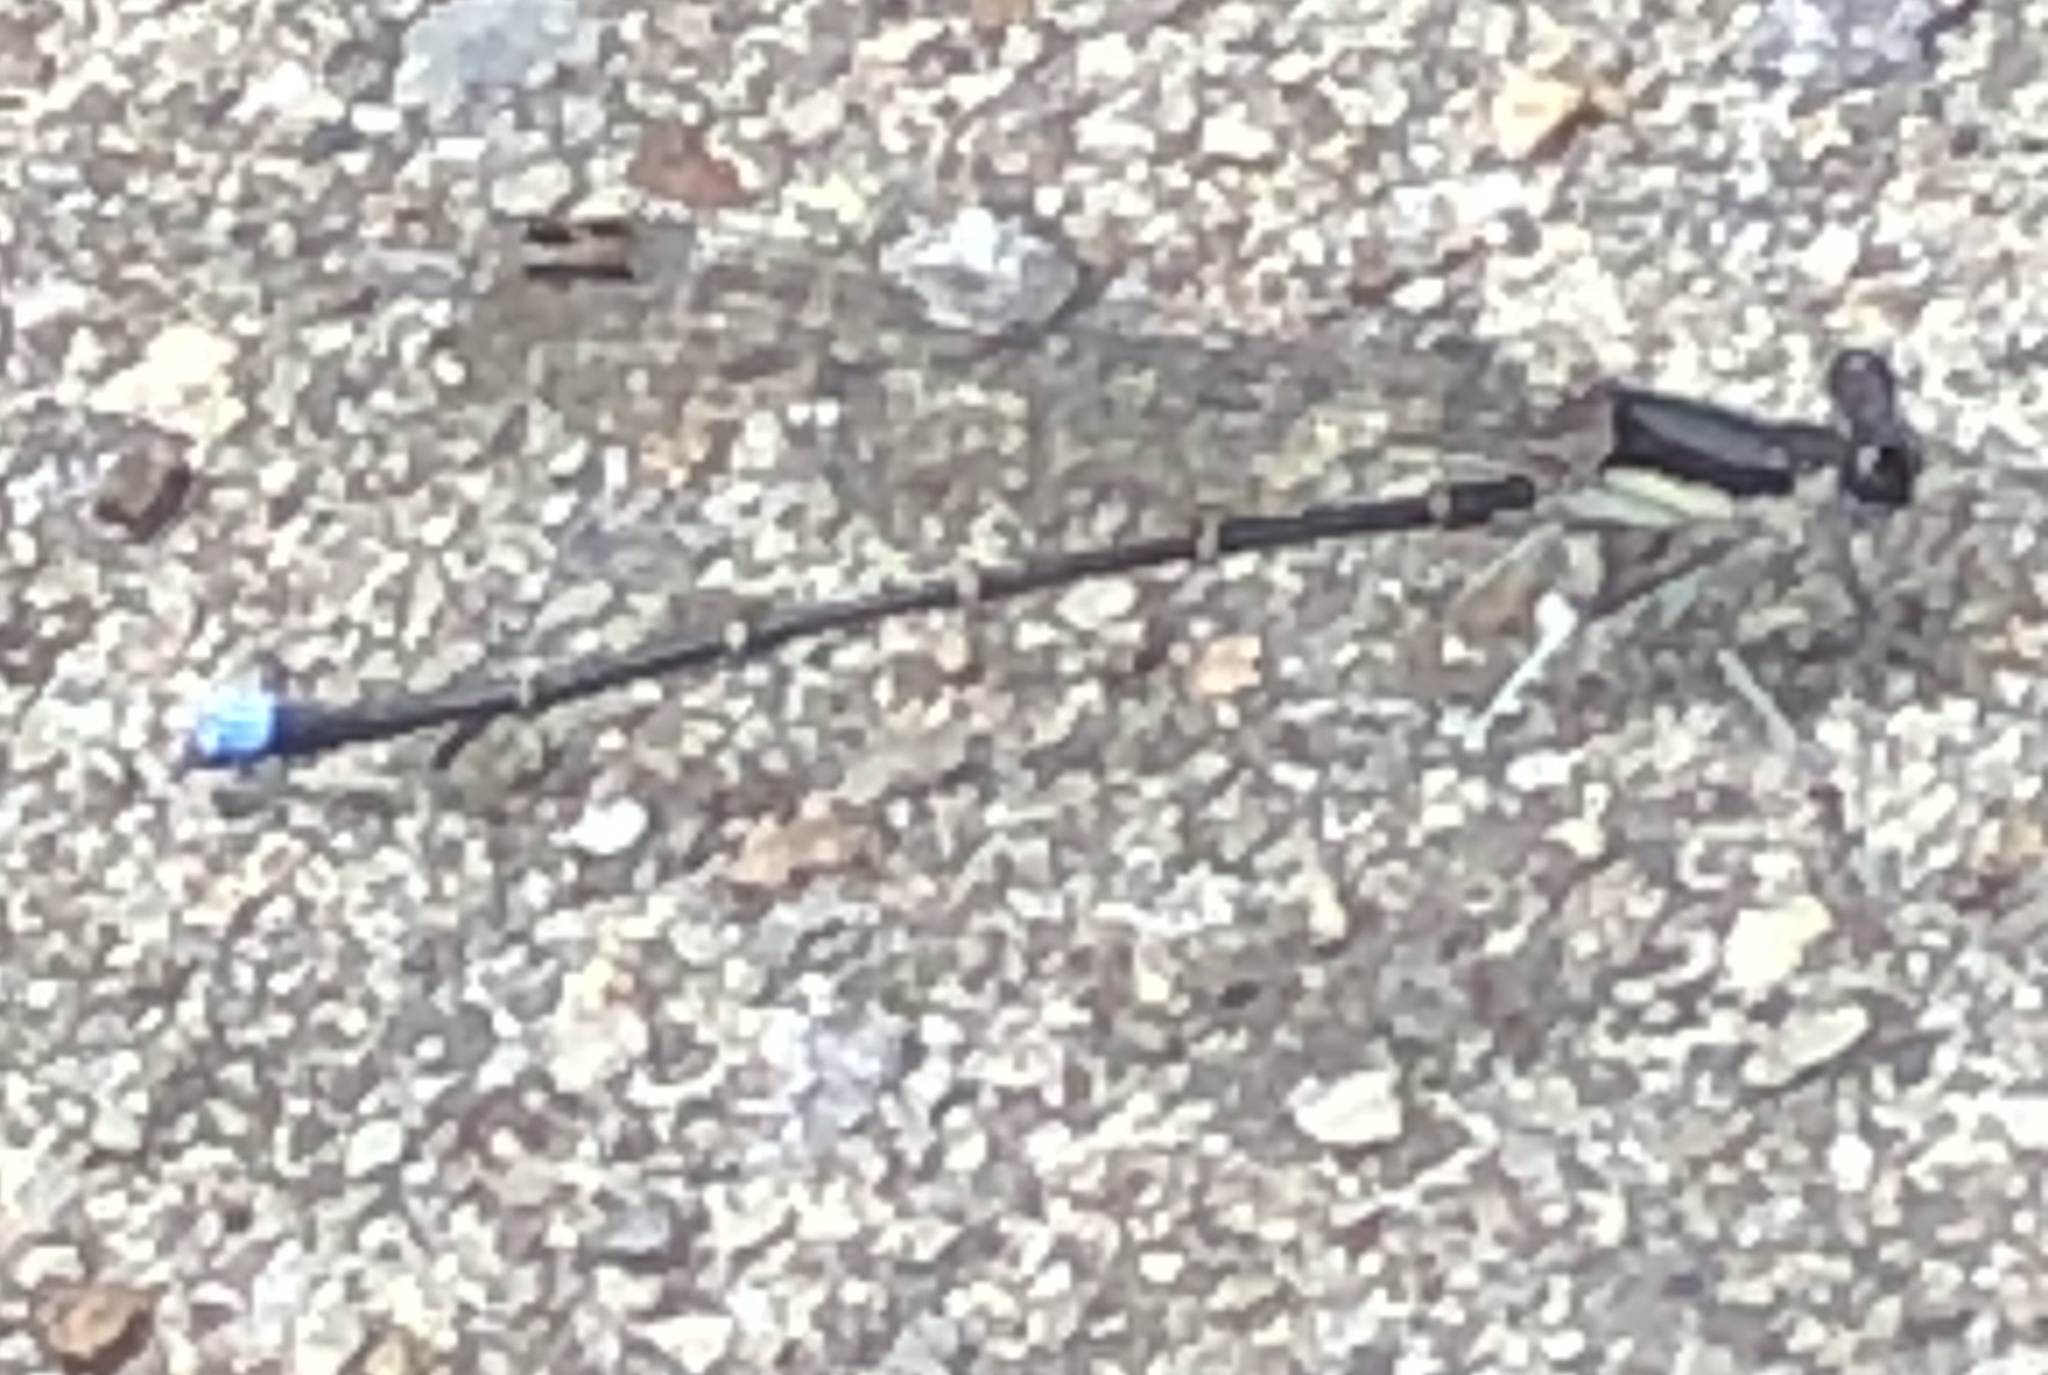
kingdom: Animalia
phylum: Arthropoda
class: Insecta
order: Odonata
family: Coenagrionidae
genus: Argia
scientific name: Argia tibialis
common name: Blue-tipped dancer
